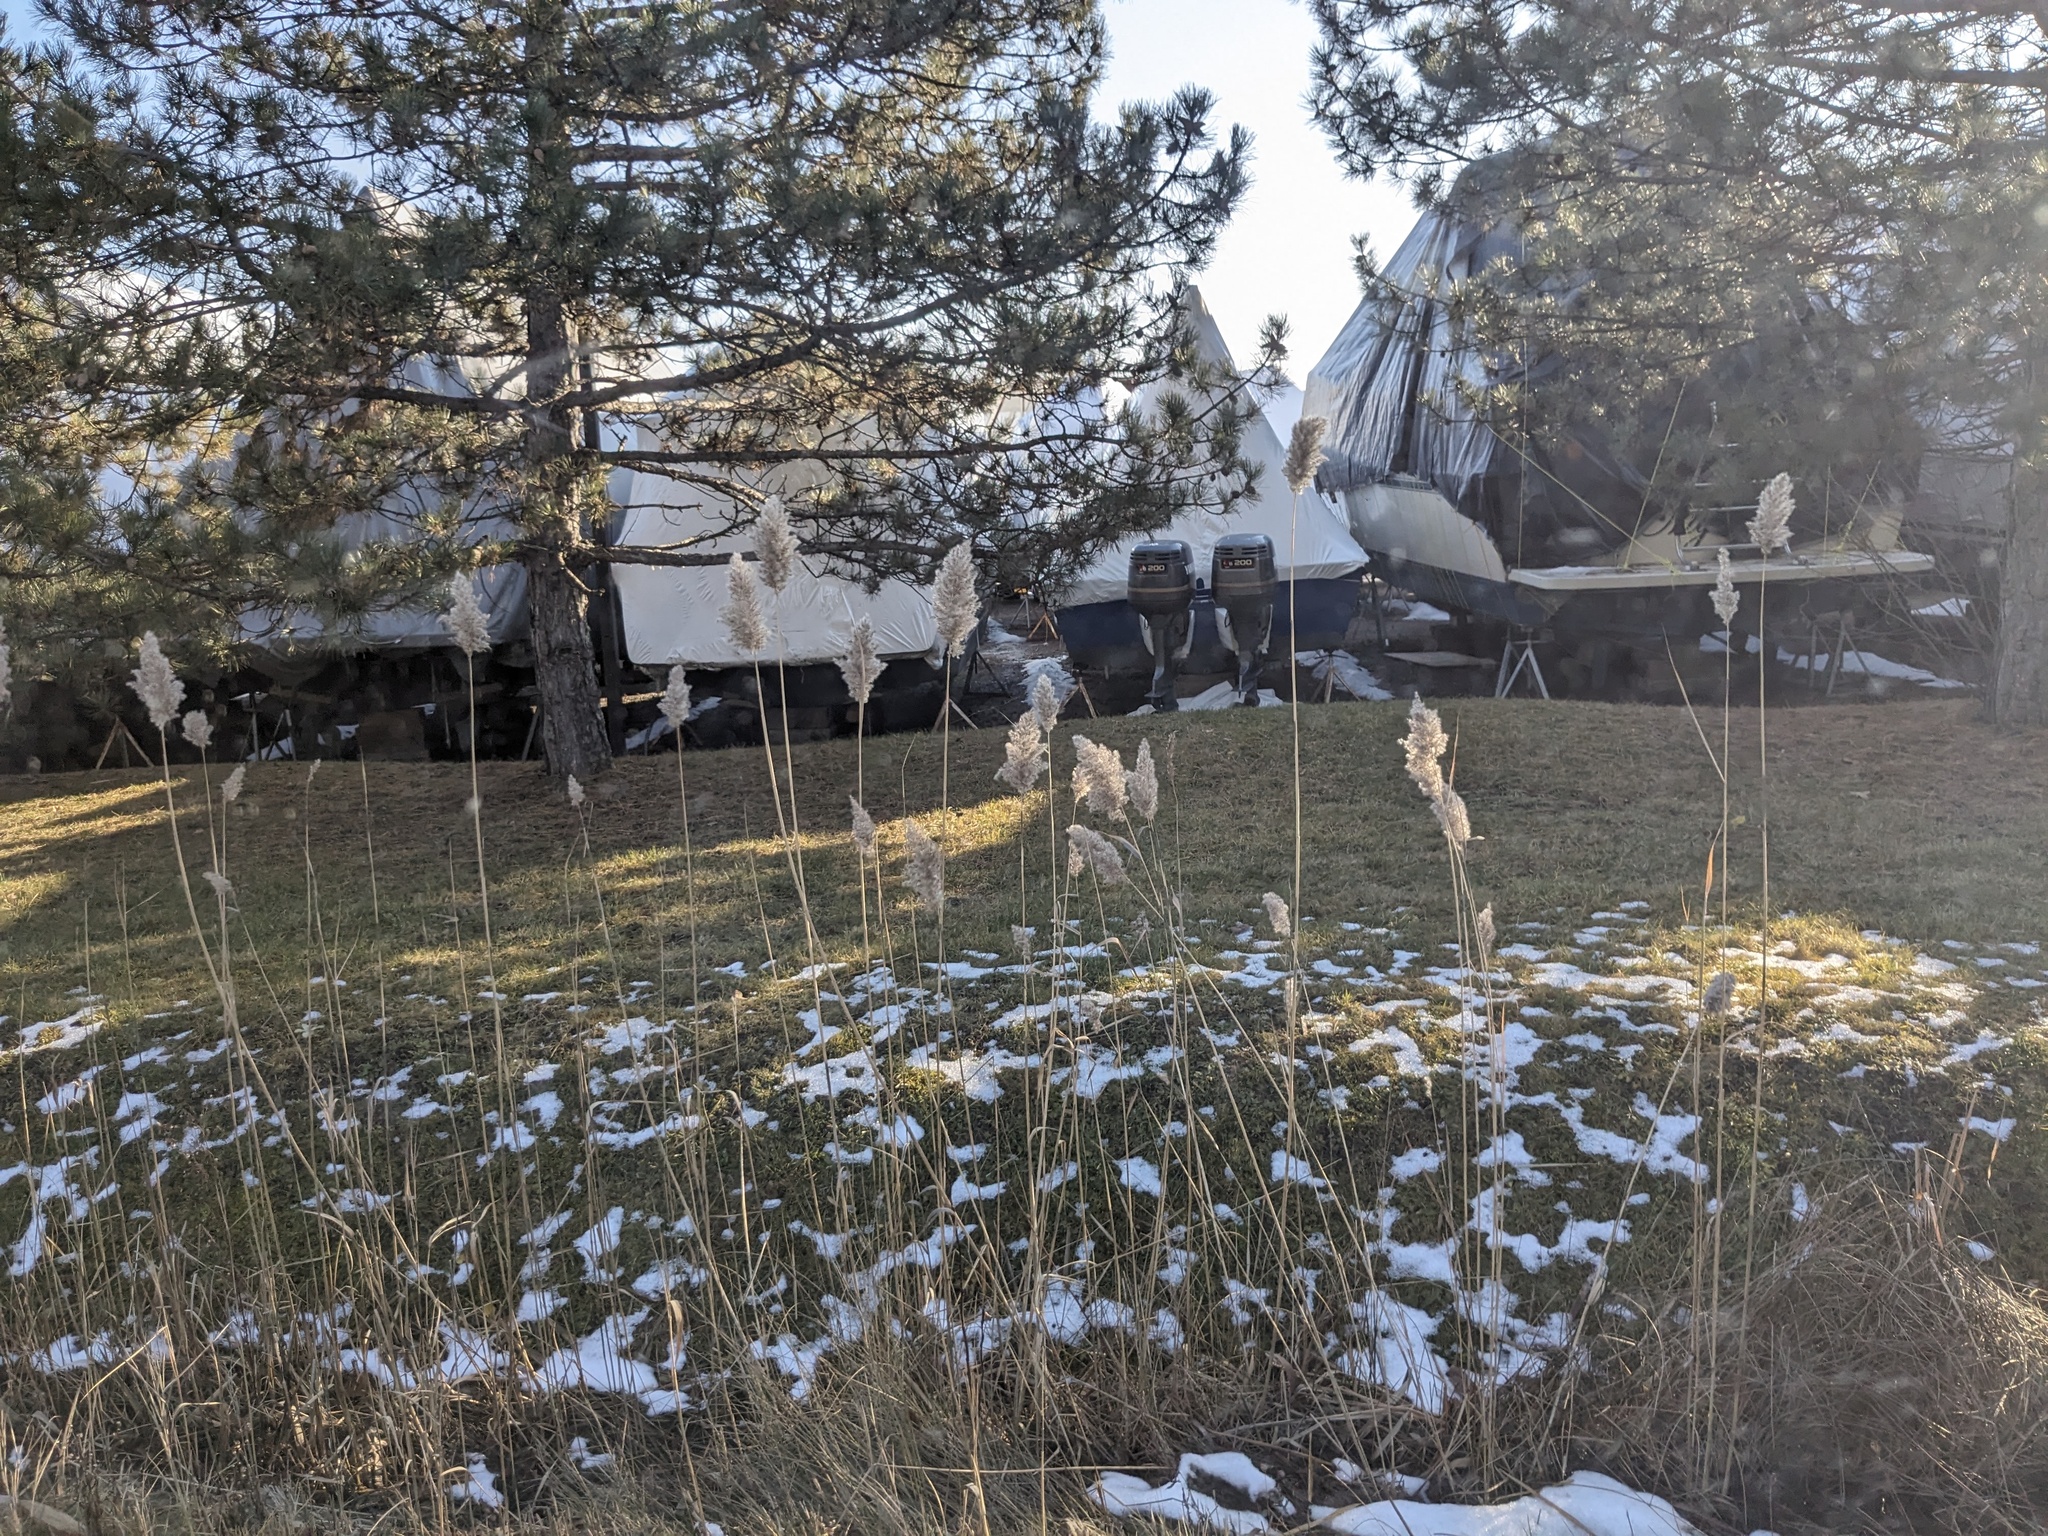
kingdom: Plantae
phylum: Tracheophyta
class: Liliopsida
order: Poales
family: Poaceae
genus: Phragmites
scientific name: Phragmites australis
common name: Common reed
